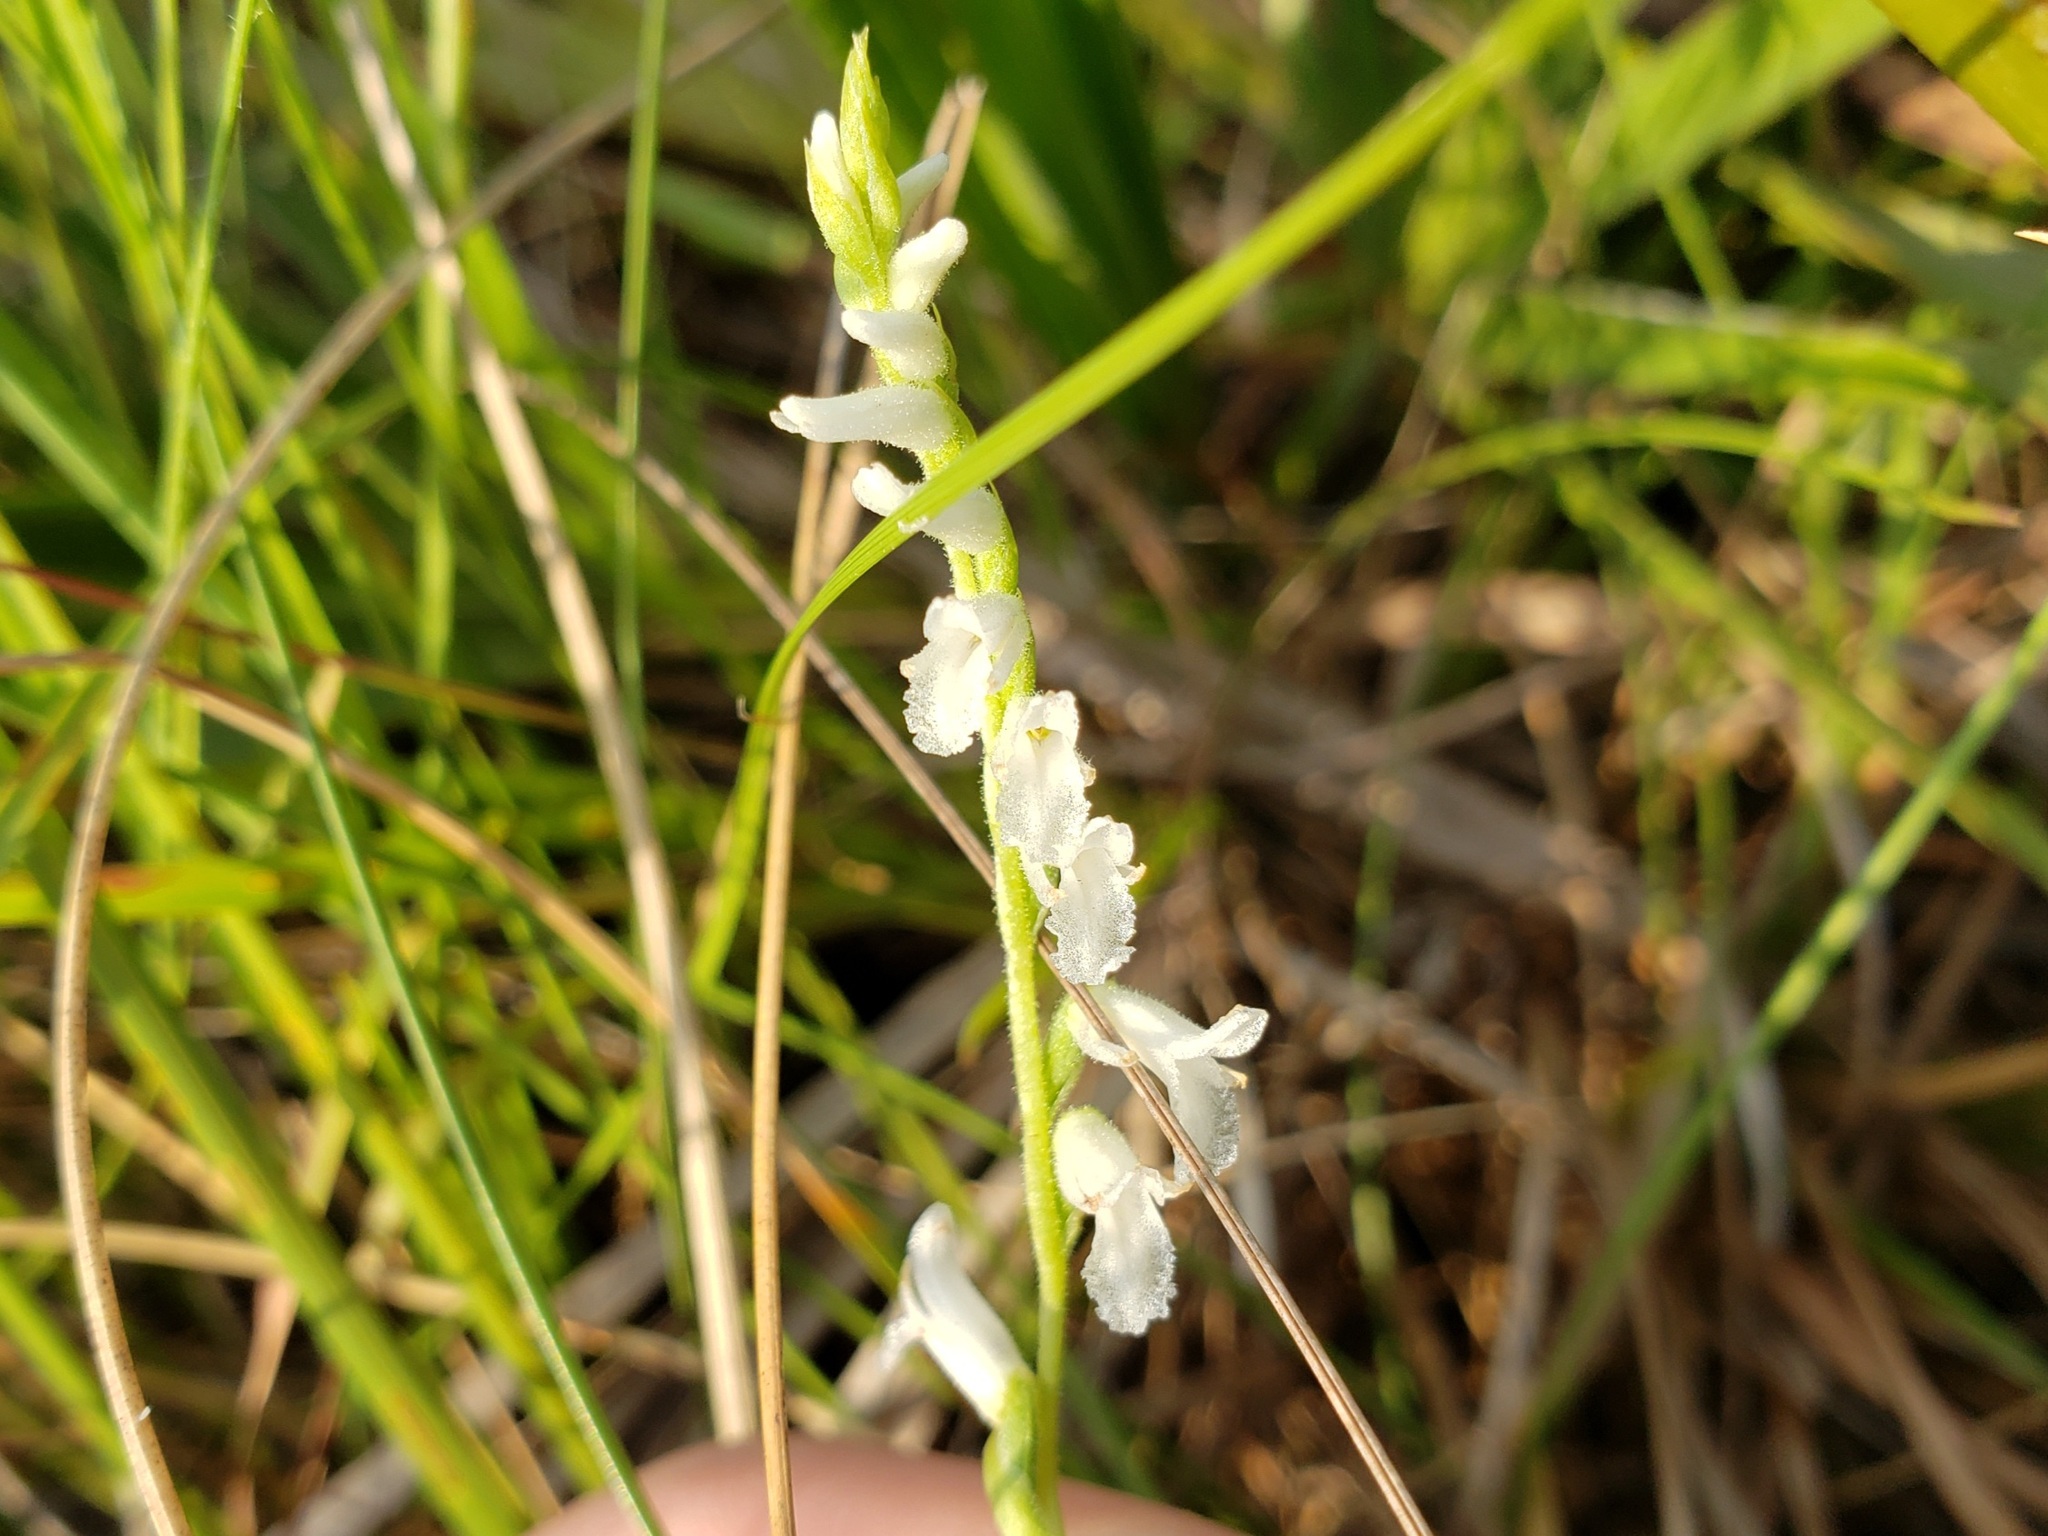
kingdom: Plantae
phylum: Tracheophyta
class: Liliopsida
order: Asparagales
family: Orchidaceae
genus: Spiranthes
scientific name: Spiranthes praecox
